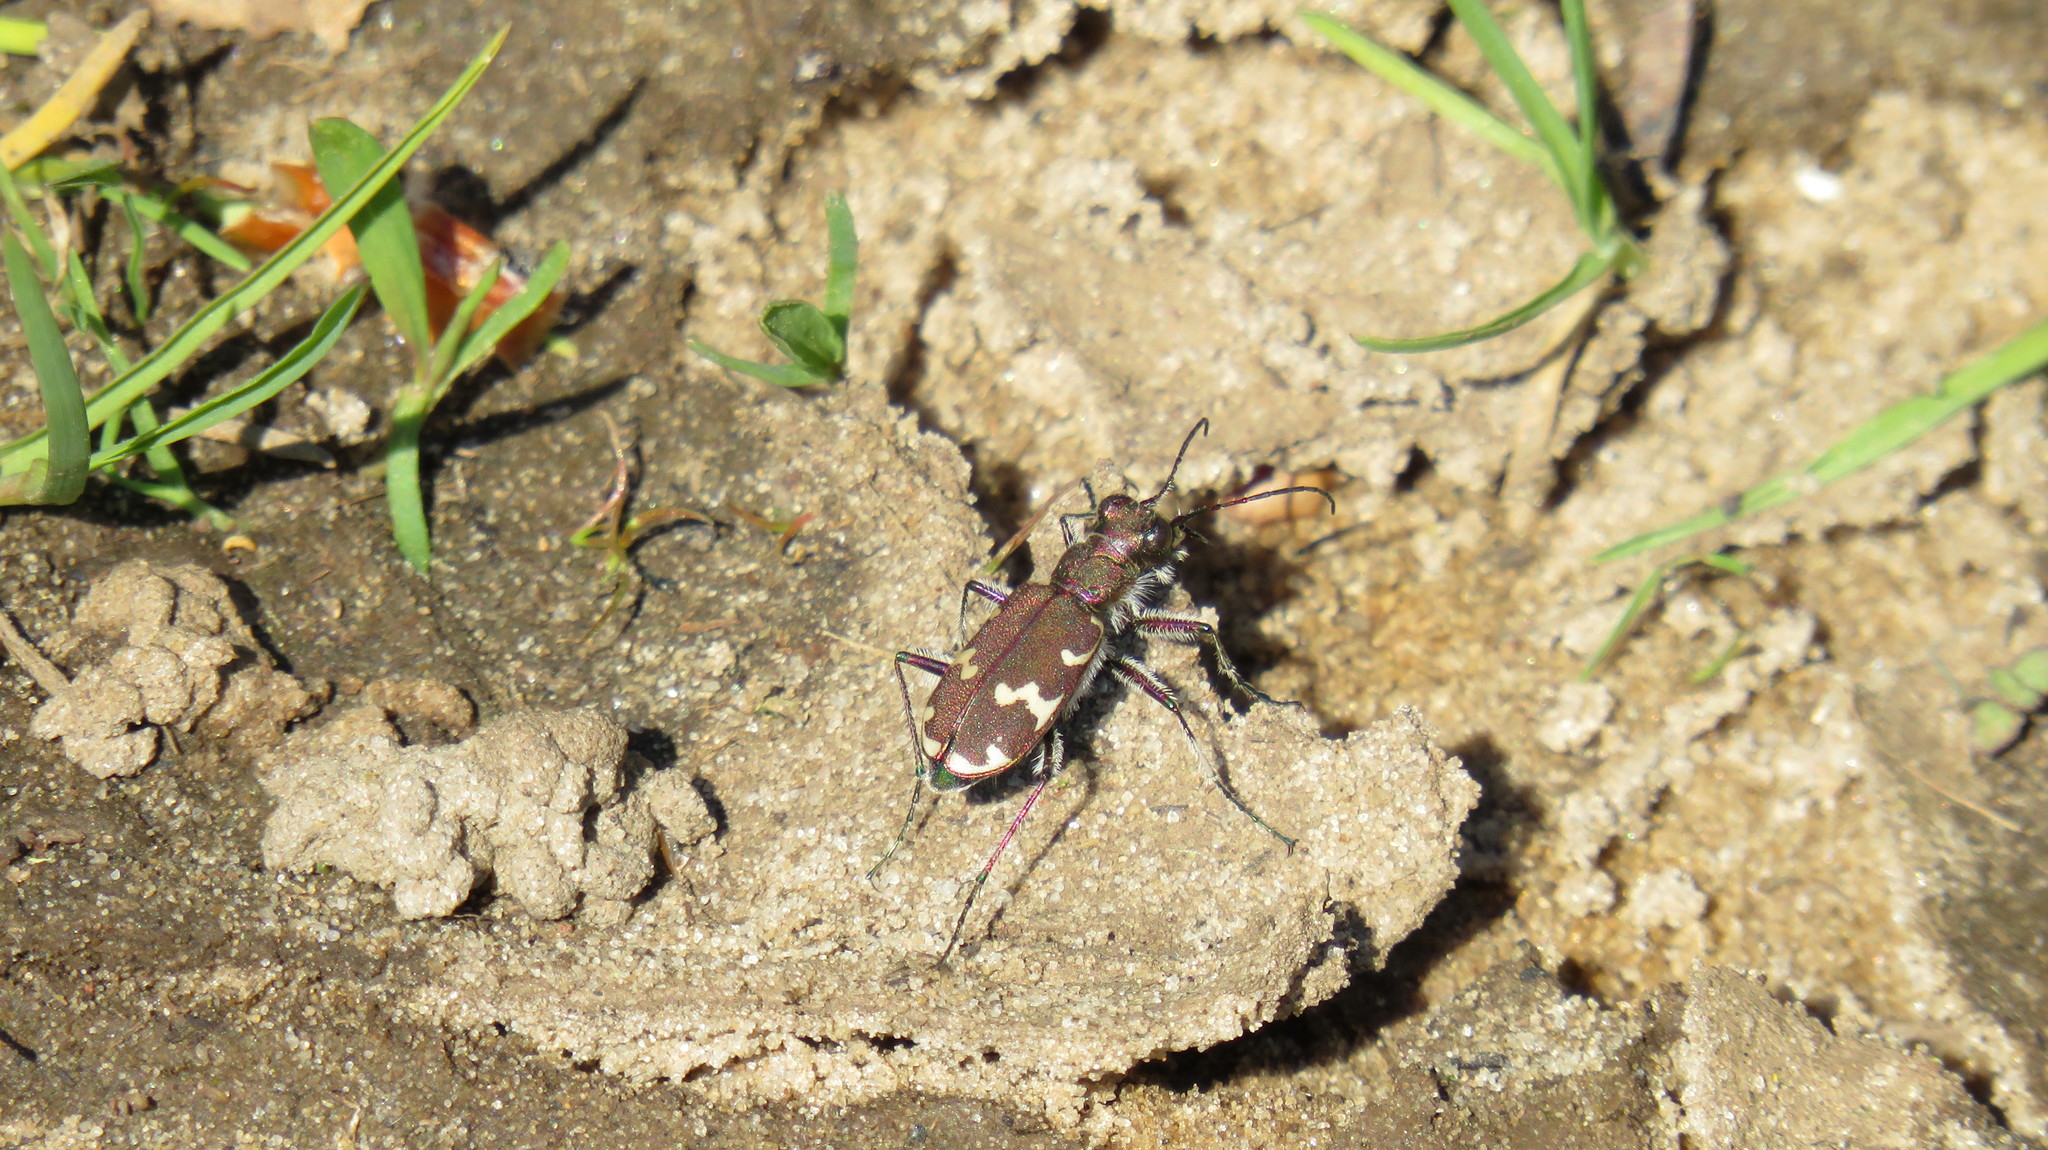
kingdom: Animalia
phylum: Arthropoda
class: Insecta
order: Coleoptera
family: Carabidae
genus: Cicindela
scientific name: Cicindela hybrida
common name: Northern dune tiger beetle
